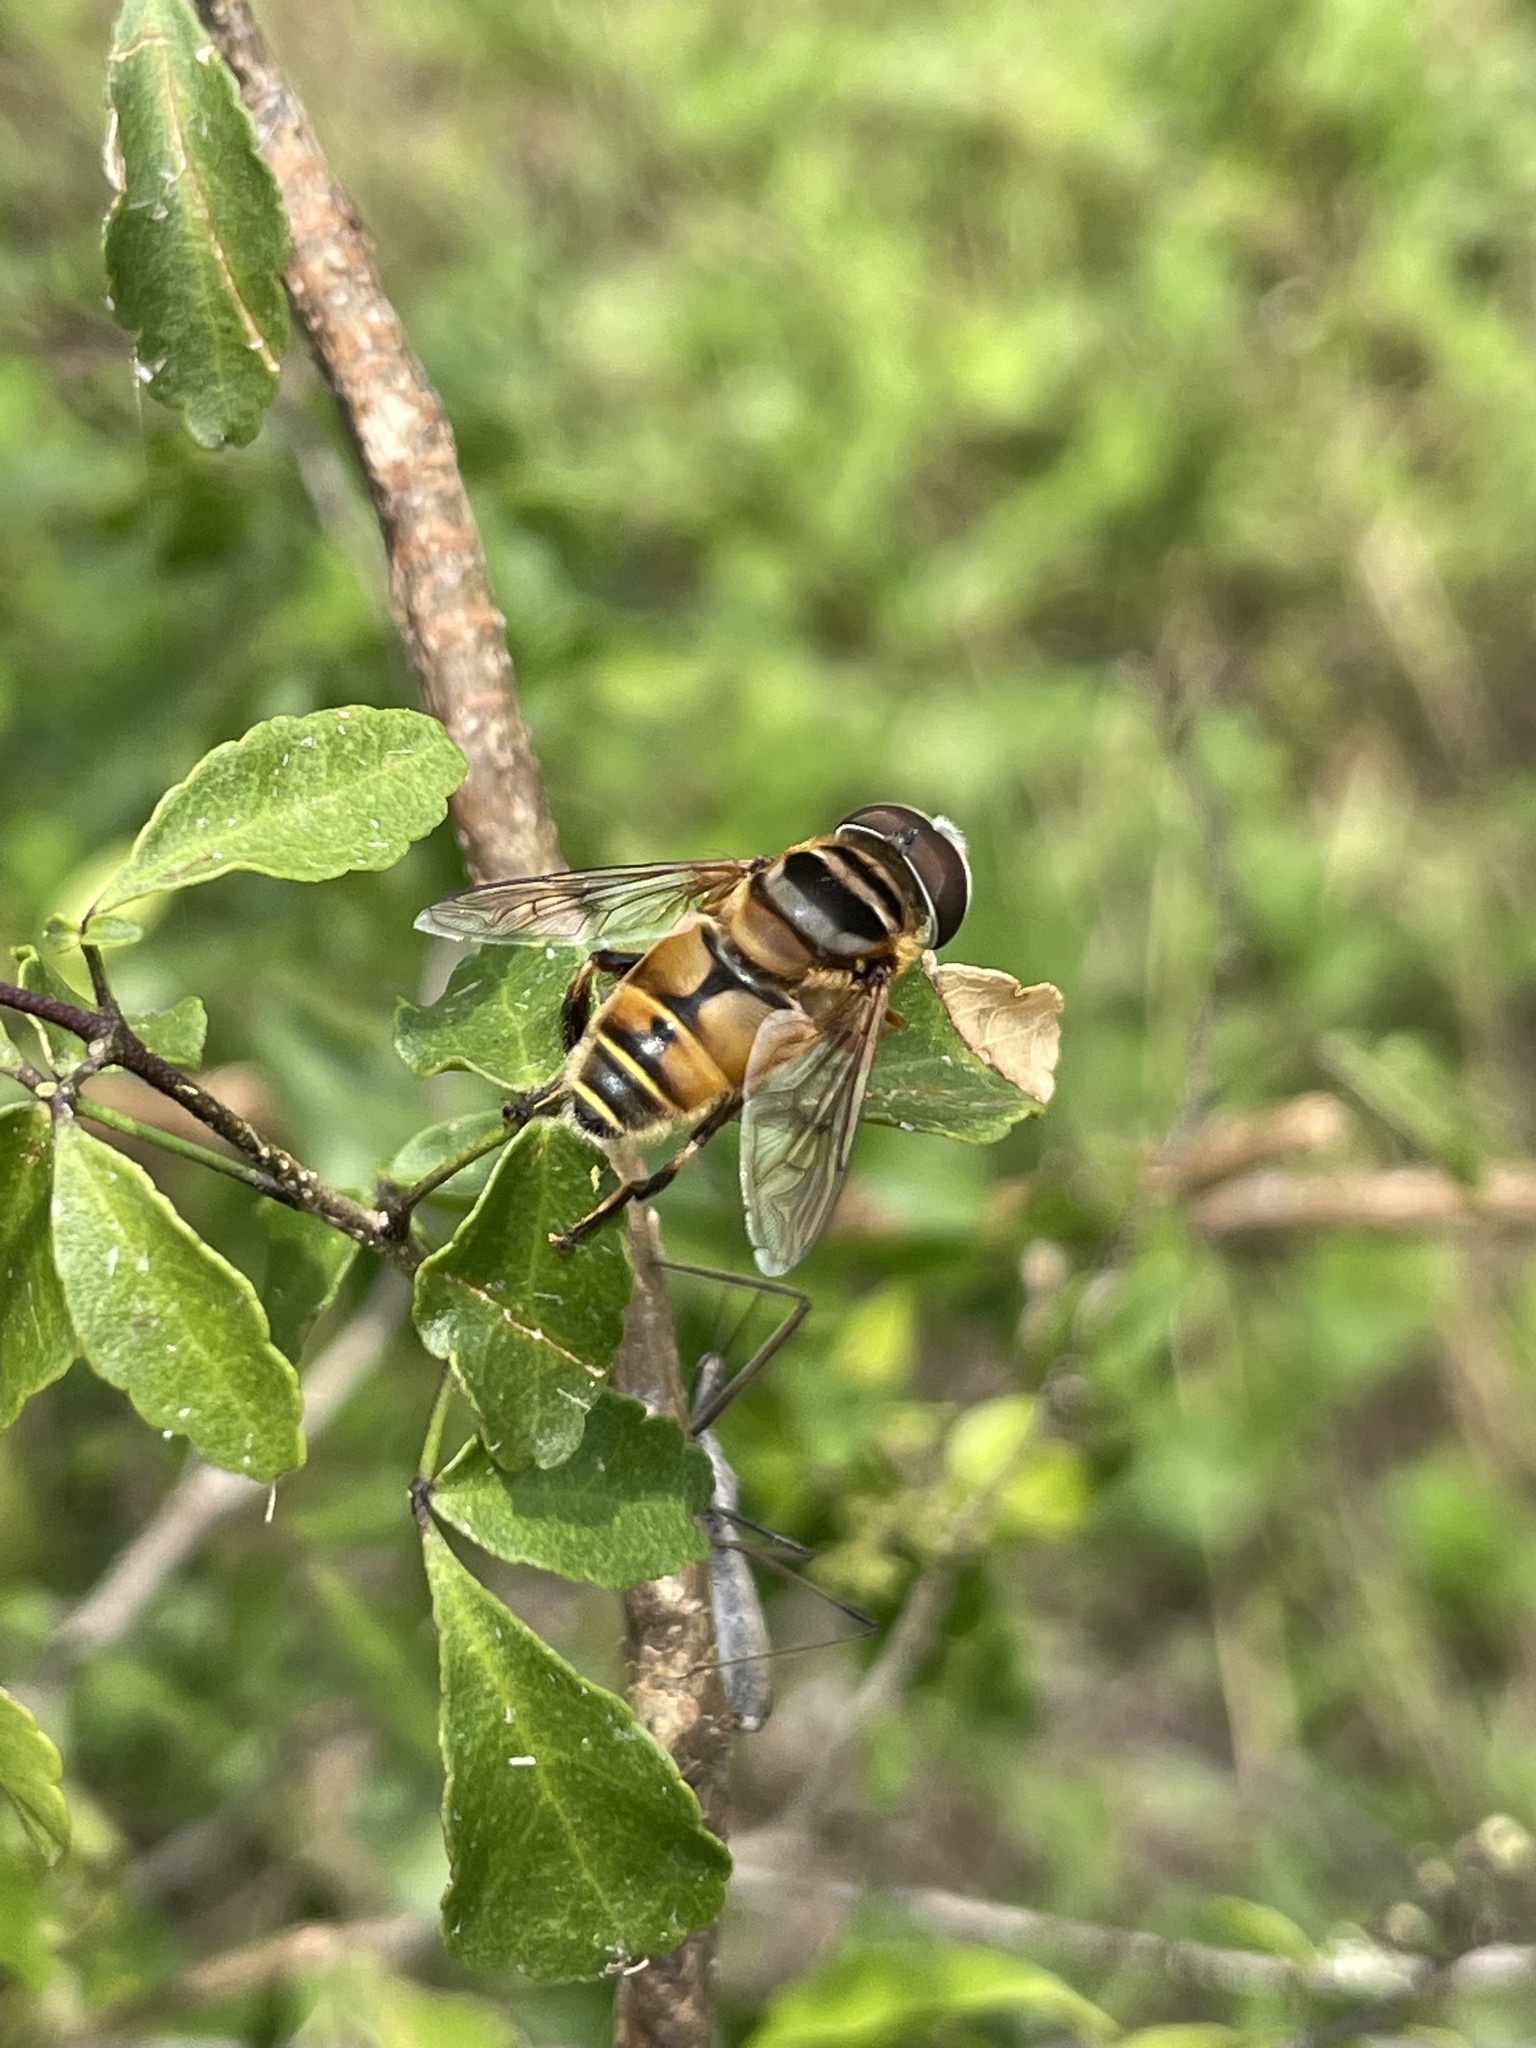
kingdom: Animalia
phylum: Arthropoda
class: Insecta
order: Diptera
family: Syrphidae
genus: Palpada
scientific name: Palpada vinetorum
